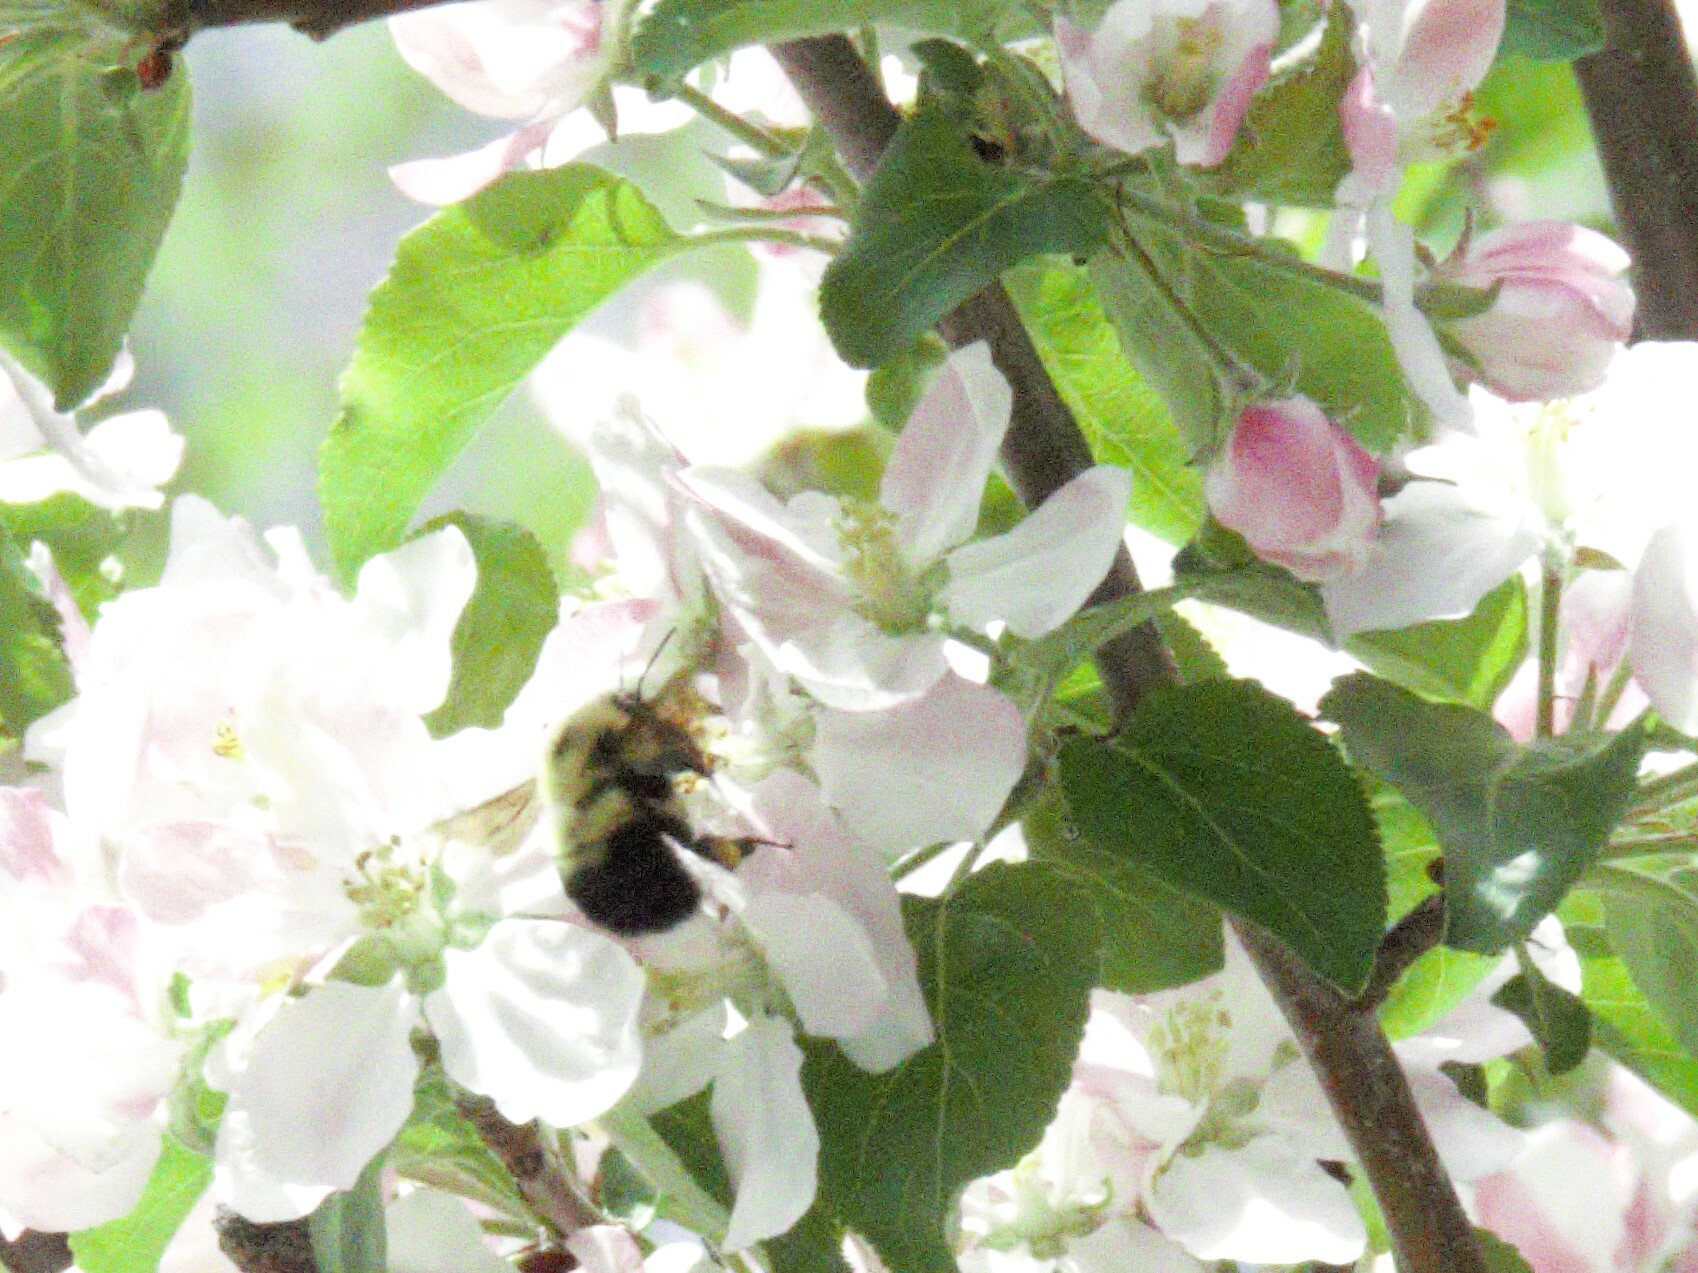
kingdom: Animalia
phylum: Arthropoda
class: Insecta
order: Hymenoptera
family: Apidae
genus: Bombus
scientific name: Bombus bimaculatus
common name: Two-spotted bumble bee
